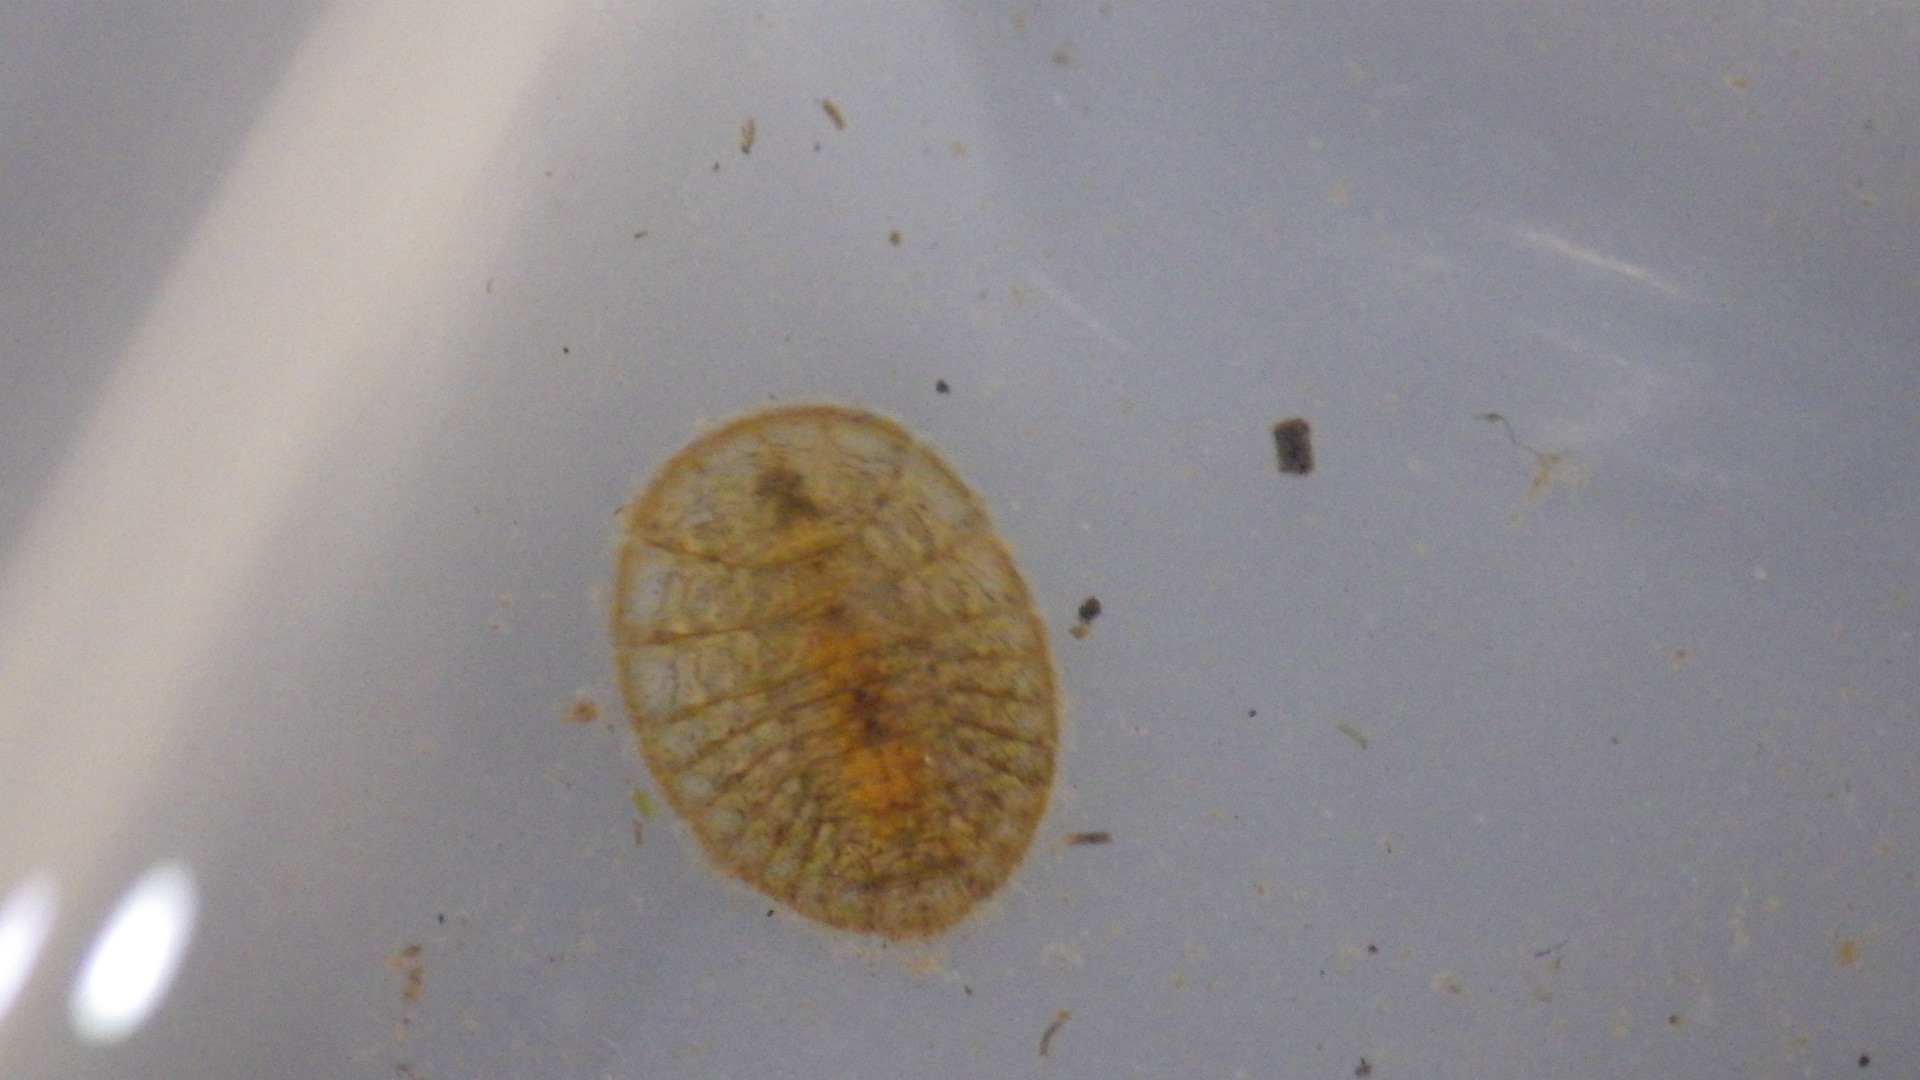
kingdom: Animalia
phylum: Arthropoda
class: Insecta
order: Coleoptera
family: Psephenidae
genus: Psephenus
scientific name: Psephenus herricki
